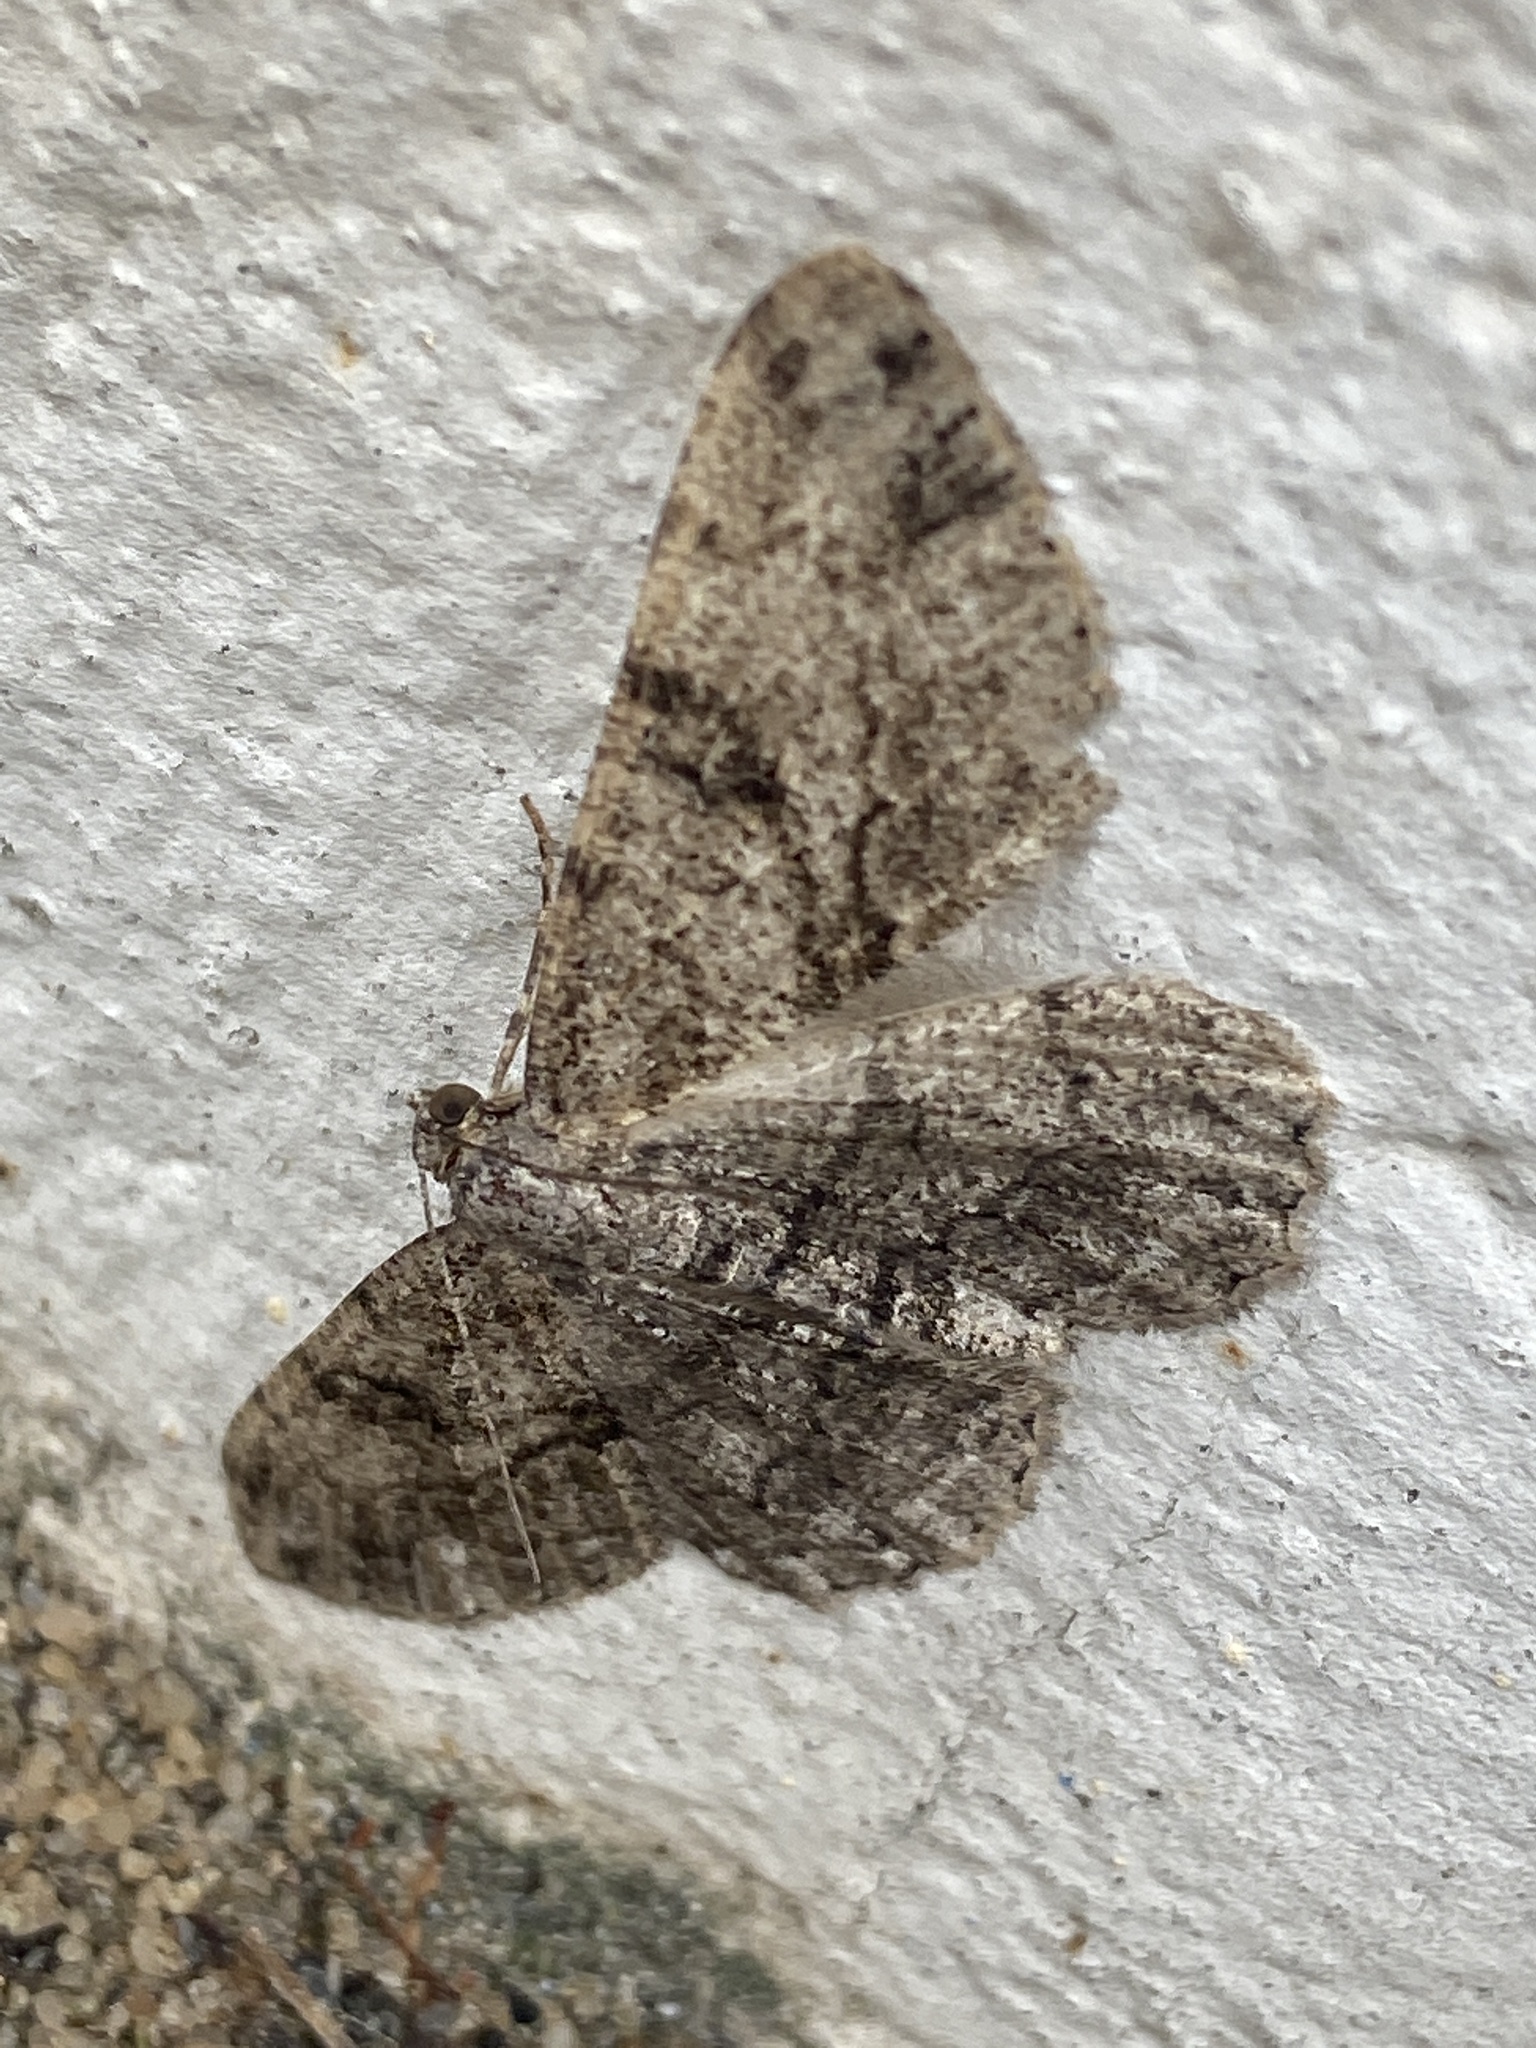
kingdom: Animalia
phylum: Arthropoda
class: Insecta
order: Lepidoptera
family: Geometridae
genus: Peribatodes
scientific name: Peribatodes rhomboidaria
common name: Willow beauty
